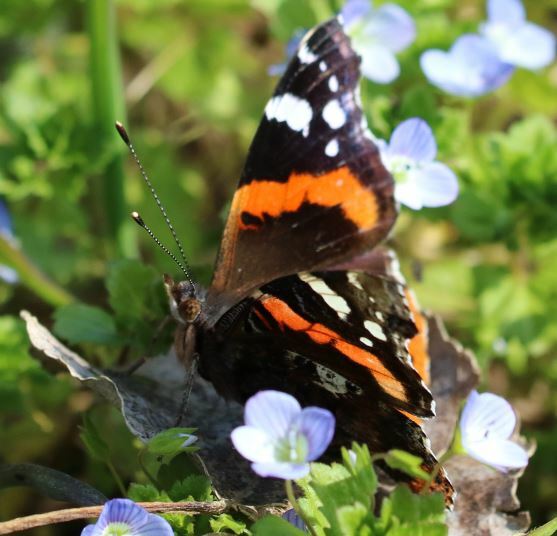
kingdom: Animalia
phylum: Arthropoda
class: Insecta
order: Lepidoptera
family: Nymphalidae
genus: Vanessa
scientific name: Vanessa atalanta
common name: Red admiral
